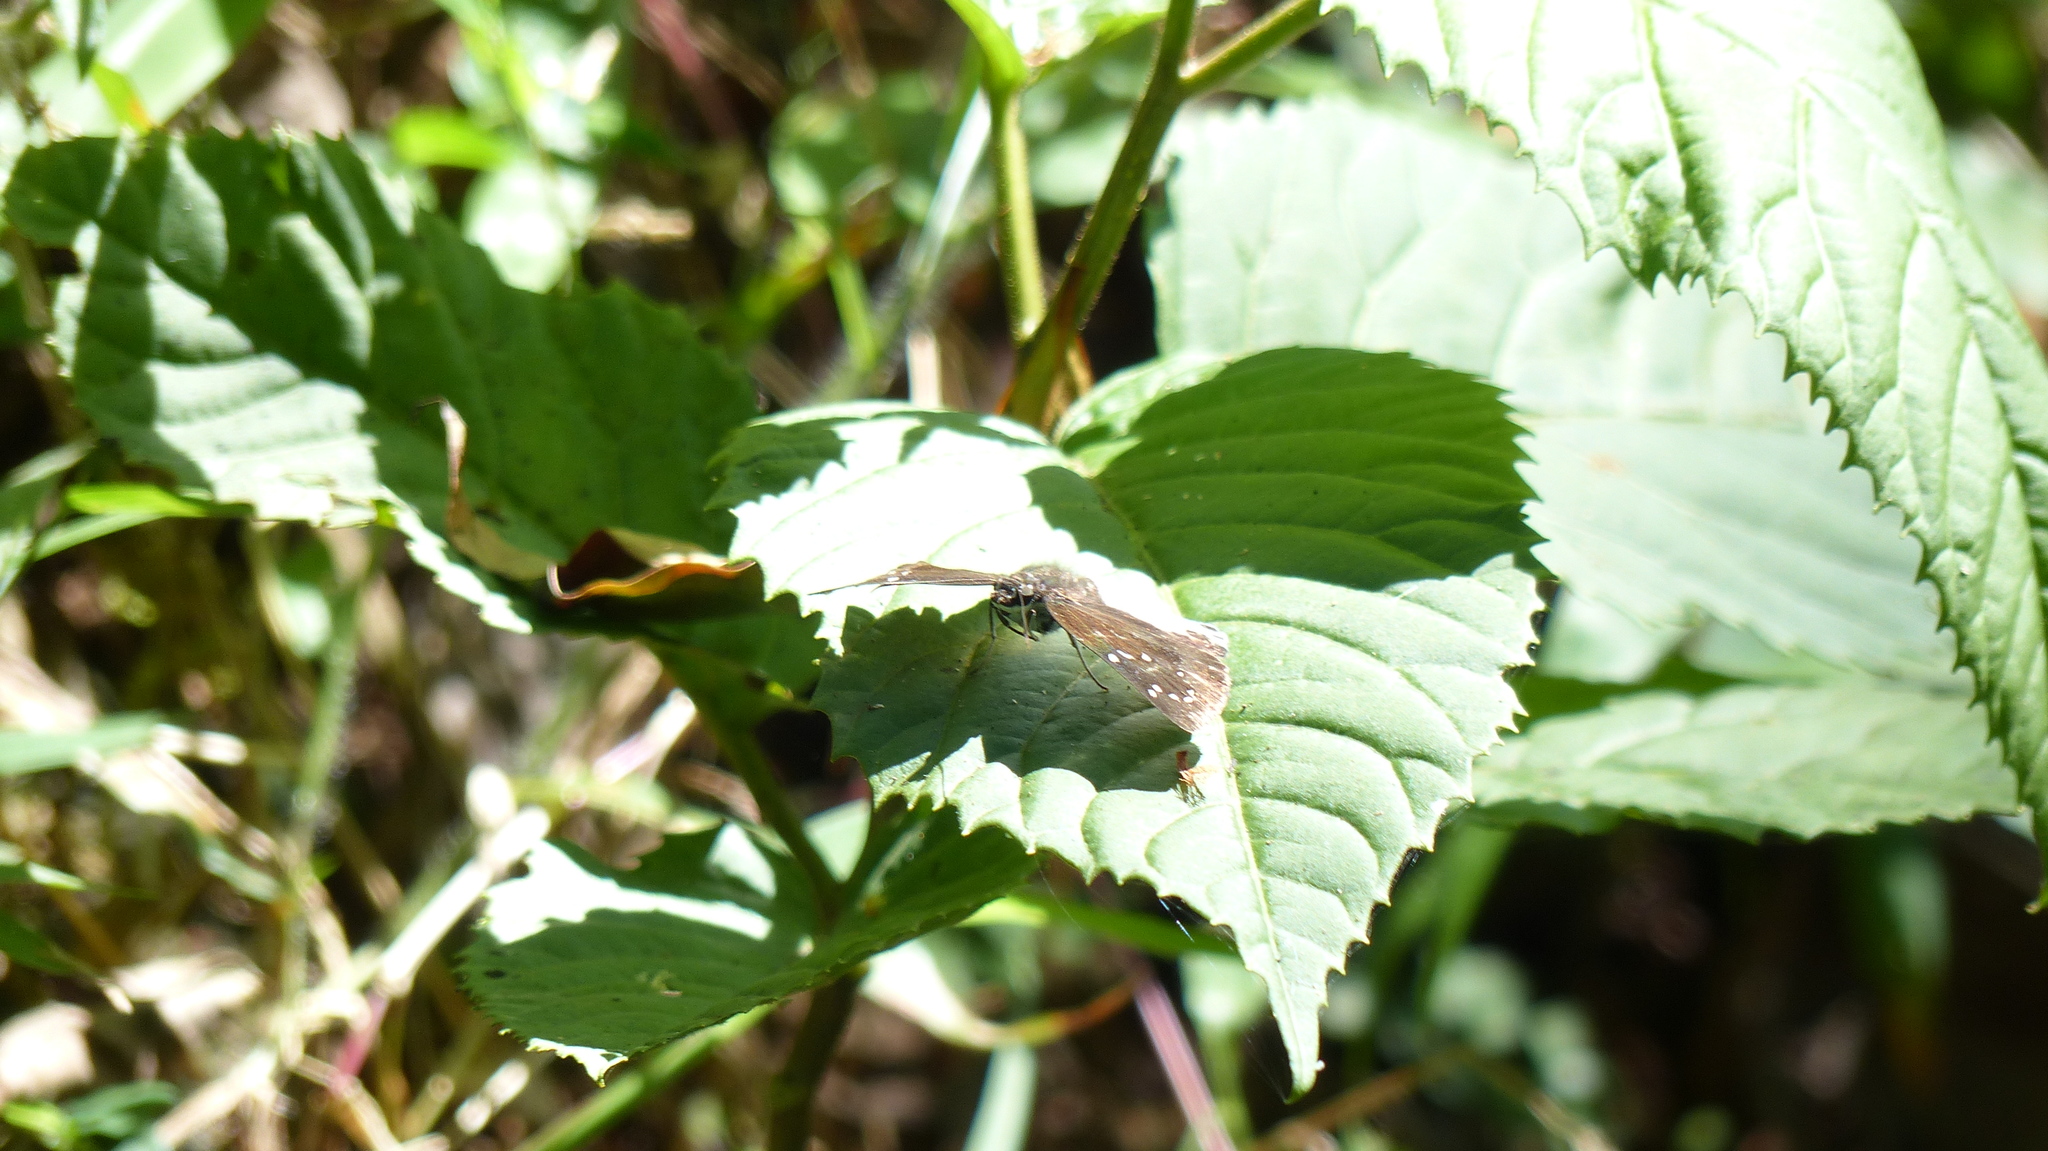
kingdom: Animalia
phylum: Arthropoda
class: Insecta
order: Lepidoptera
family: Hesperiidae
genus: Tagiades
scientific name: Tagiades litigiosa
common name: Water snow flat
